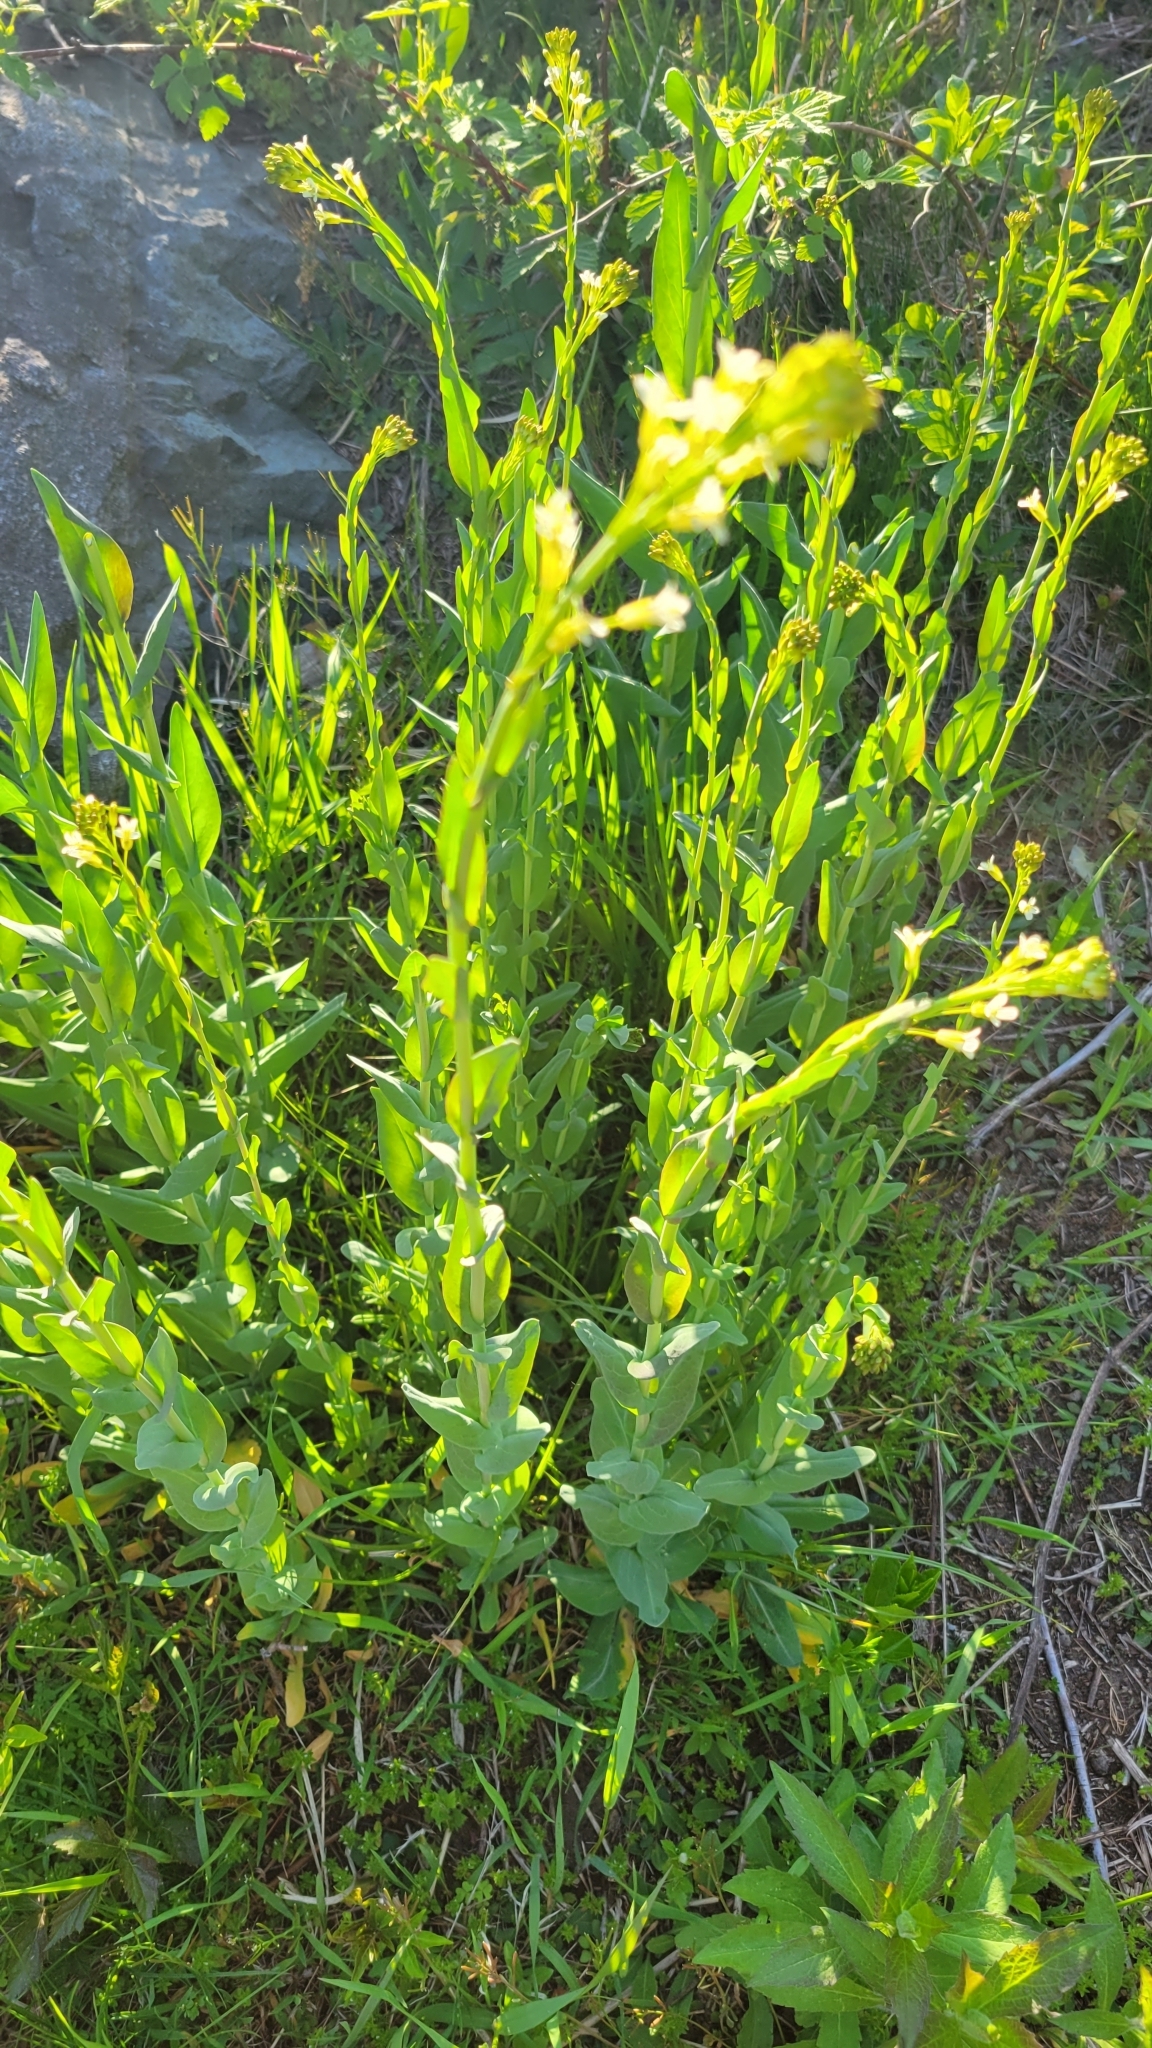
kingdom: Plantae
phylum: Tracheophyta
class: Magnoliopsida
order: Brassicales
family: Brassicaceae
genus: Turritis
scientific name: Turritis glabra
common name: Tower rockcress
